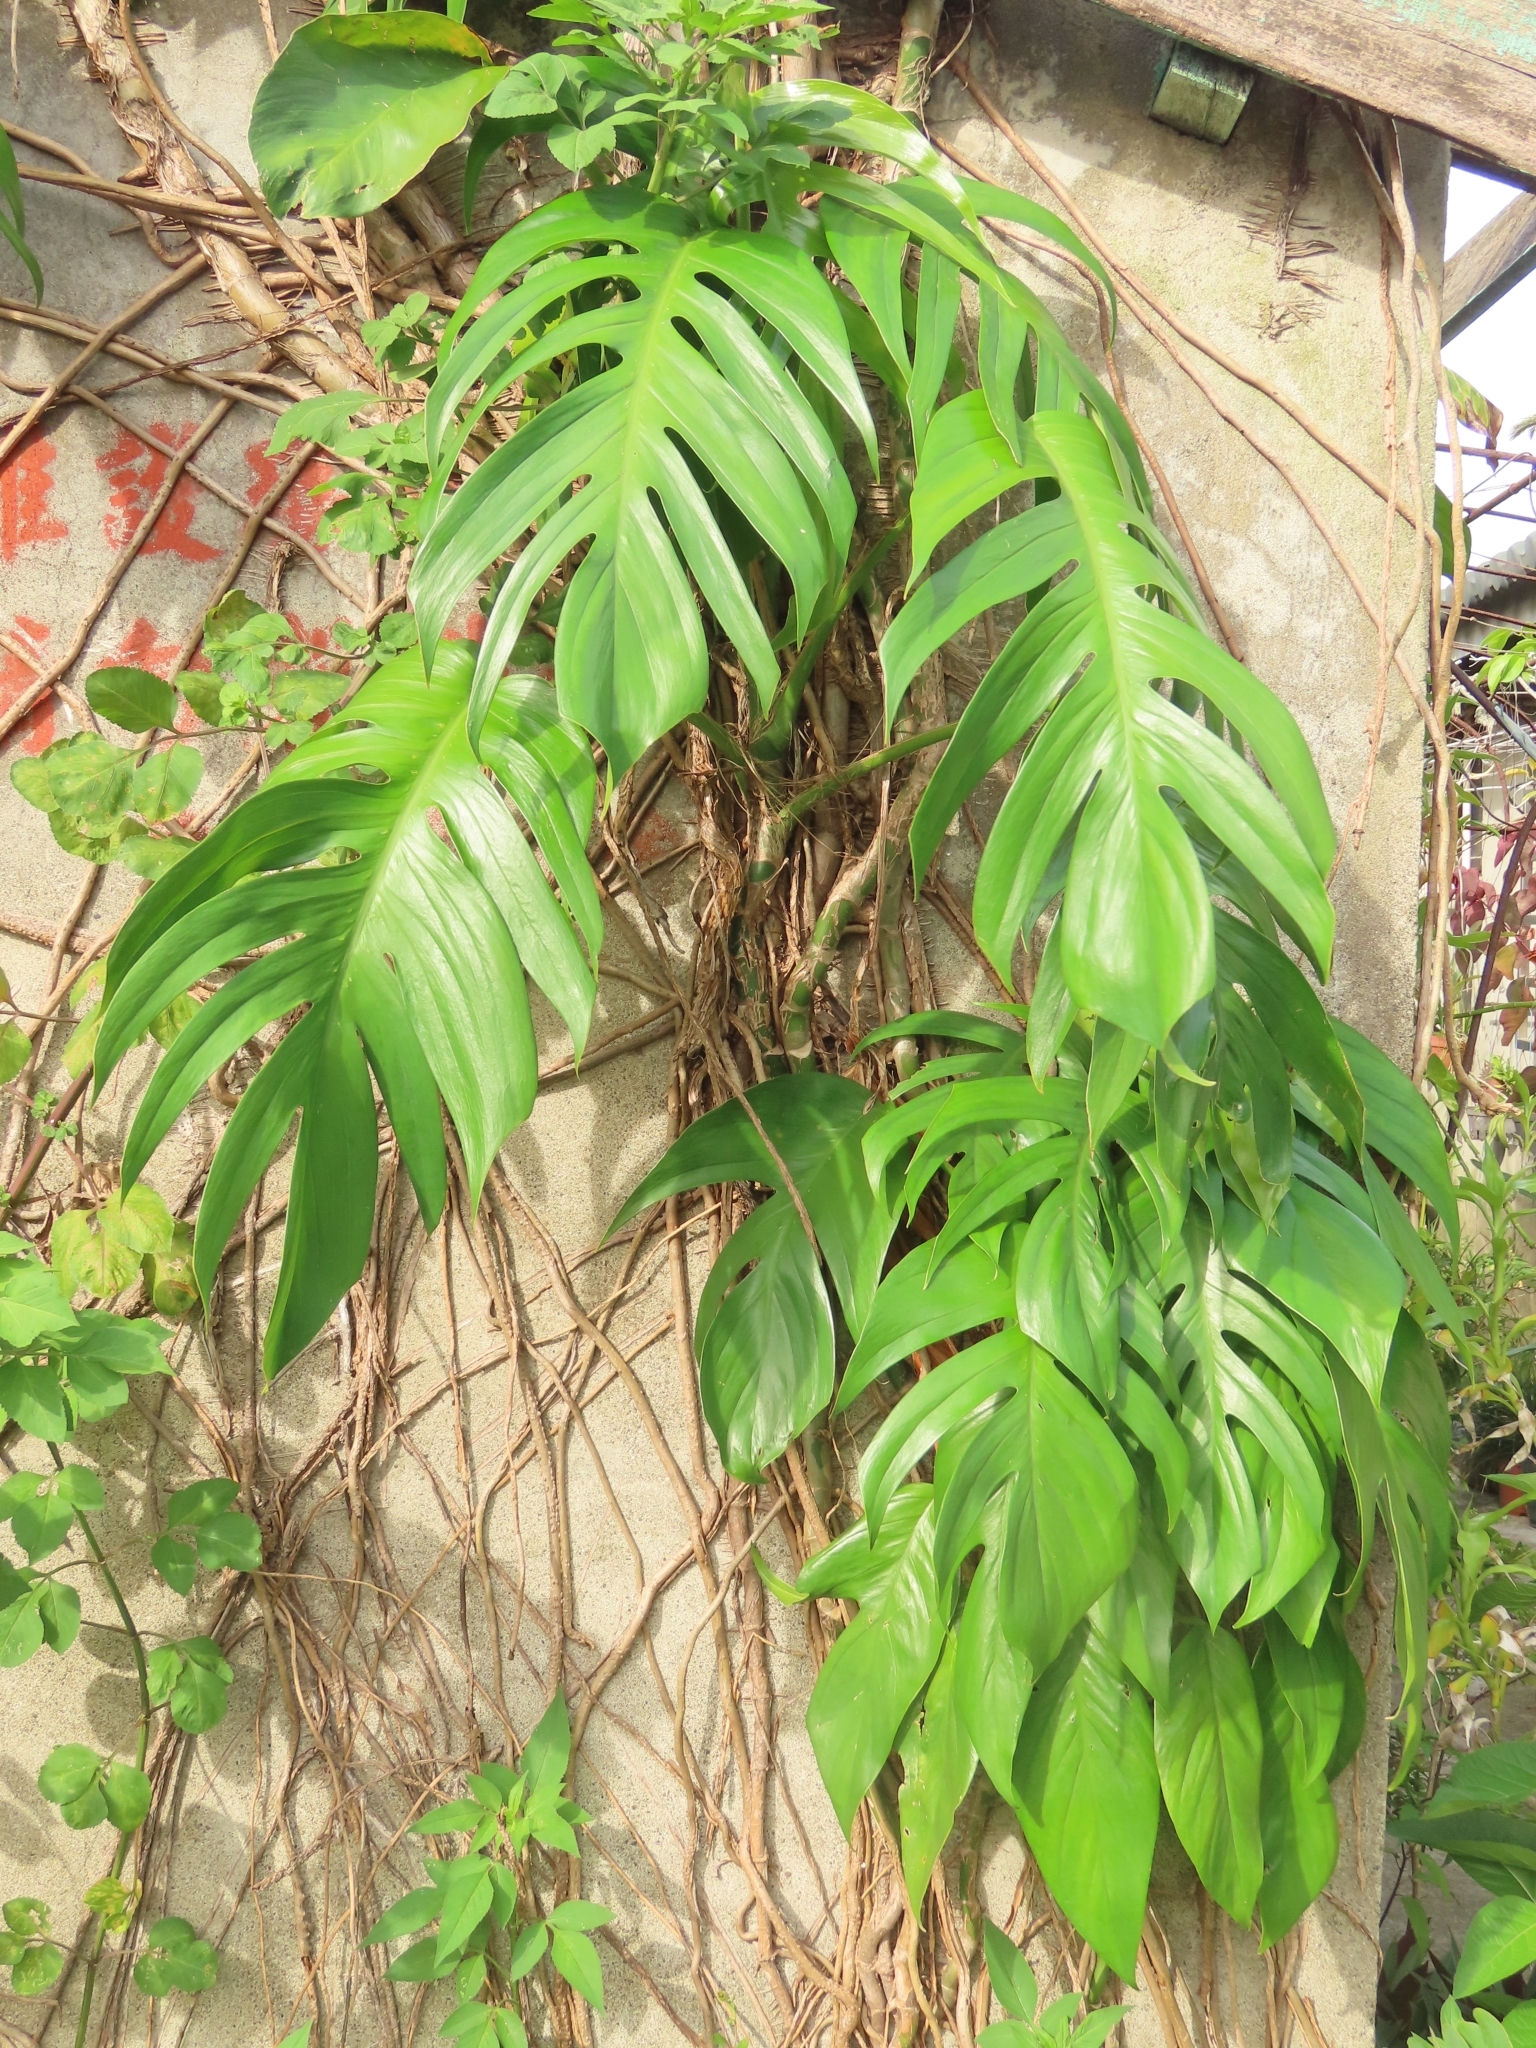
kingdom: Plantae
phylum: Tracheophyta
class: Liliopsida
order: Alismatales
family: Araceae
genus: Epipremnum
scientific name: Epipremnum pinnatum
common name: Centipede tongavine
